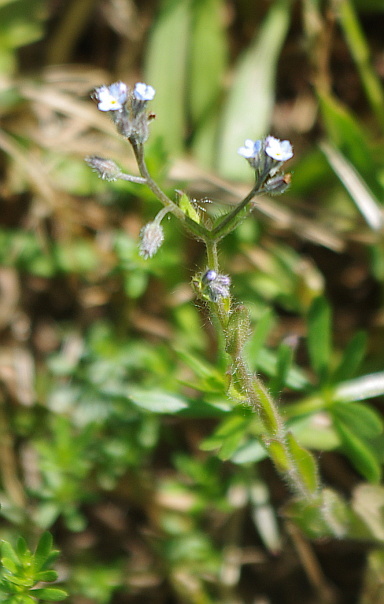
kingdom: Plantae
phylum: Tracheophyta
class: Magnoliopsida
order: Boraginales
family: Boraginaceae
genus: Myosotis
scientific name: Myosotis arvensis
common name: Field forget-me-not
